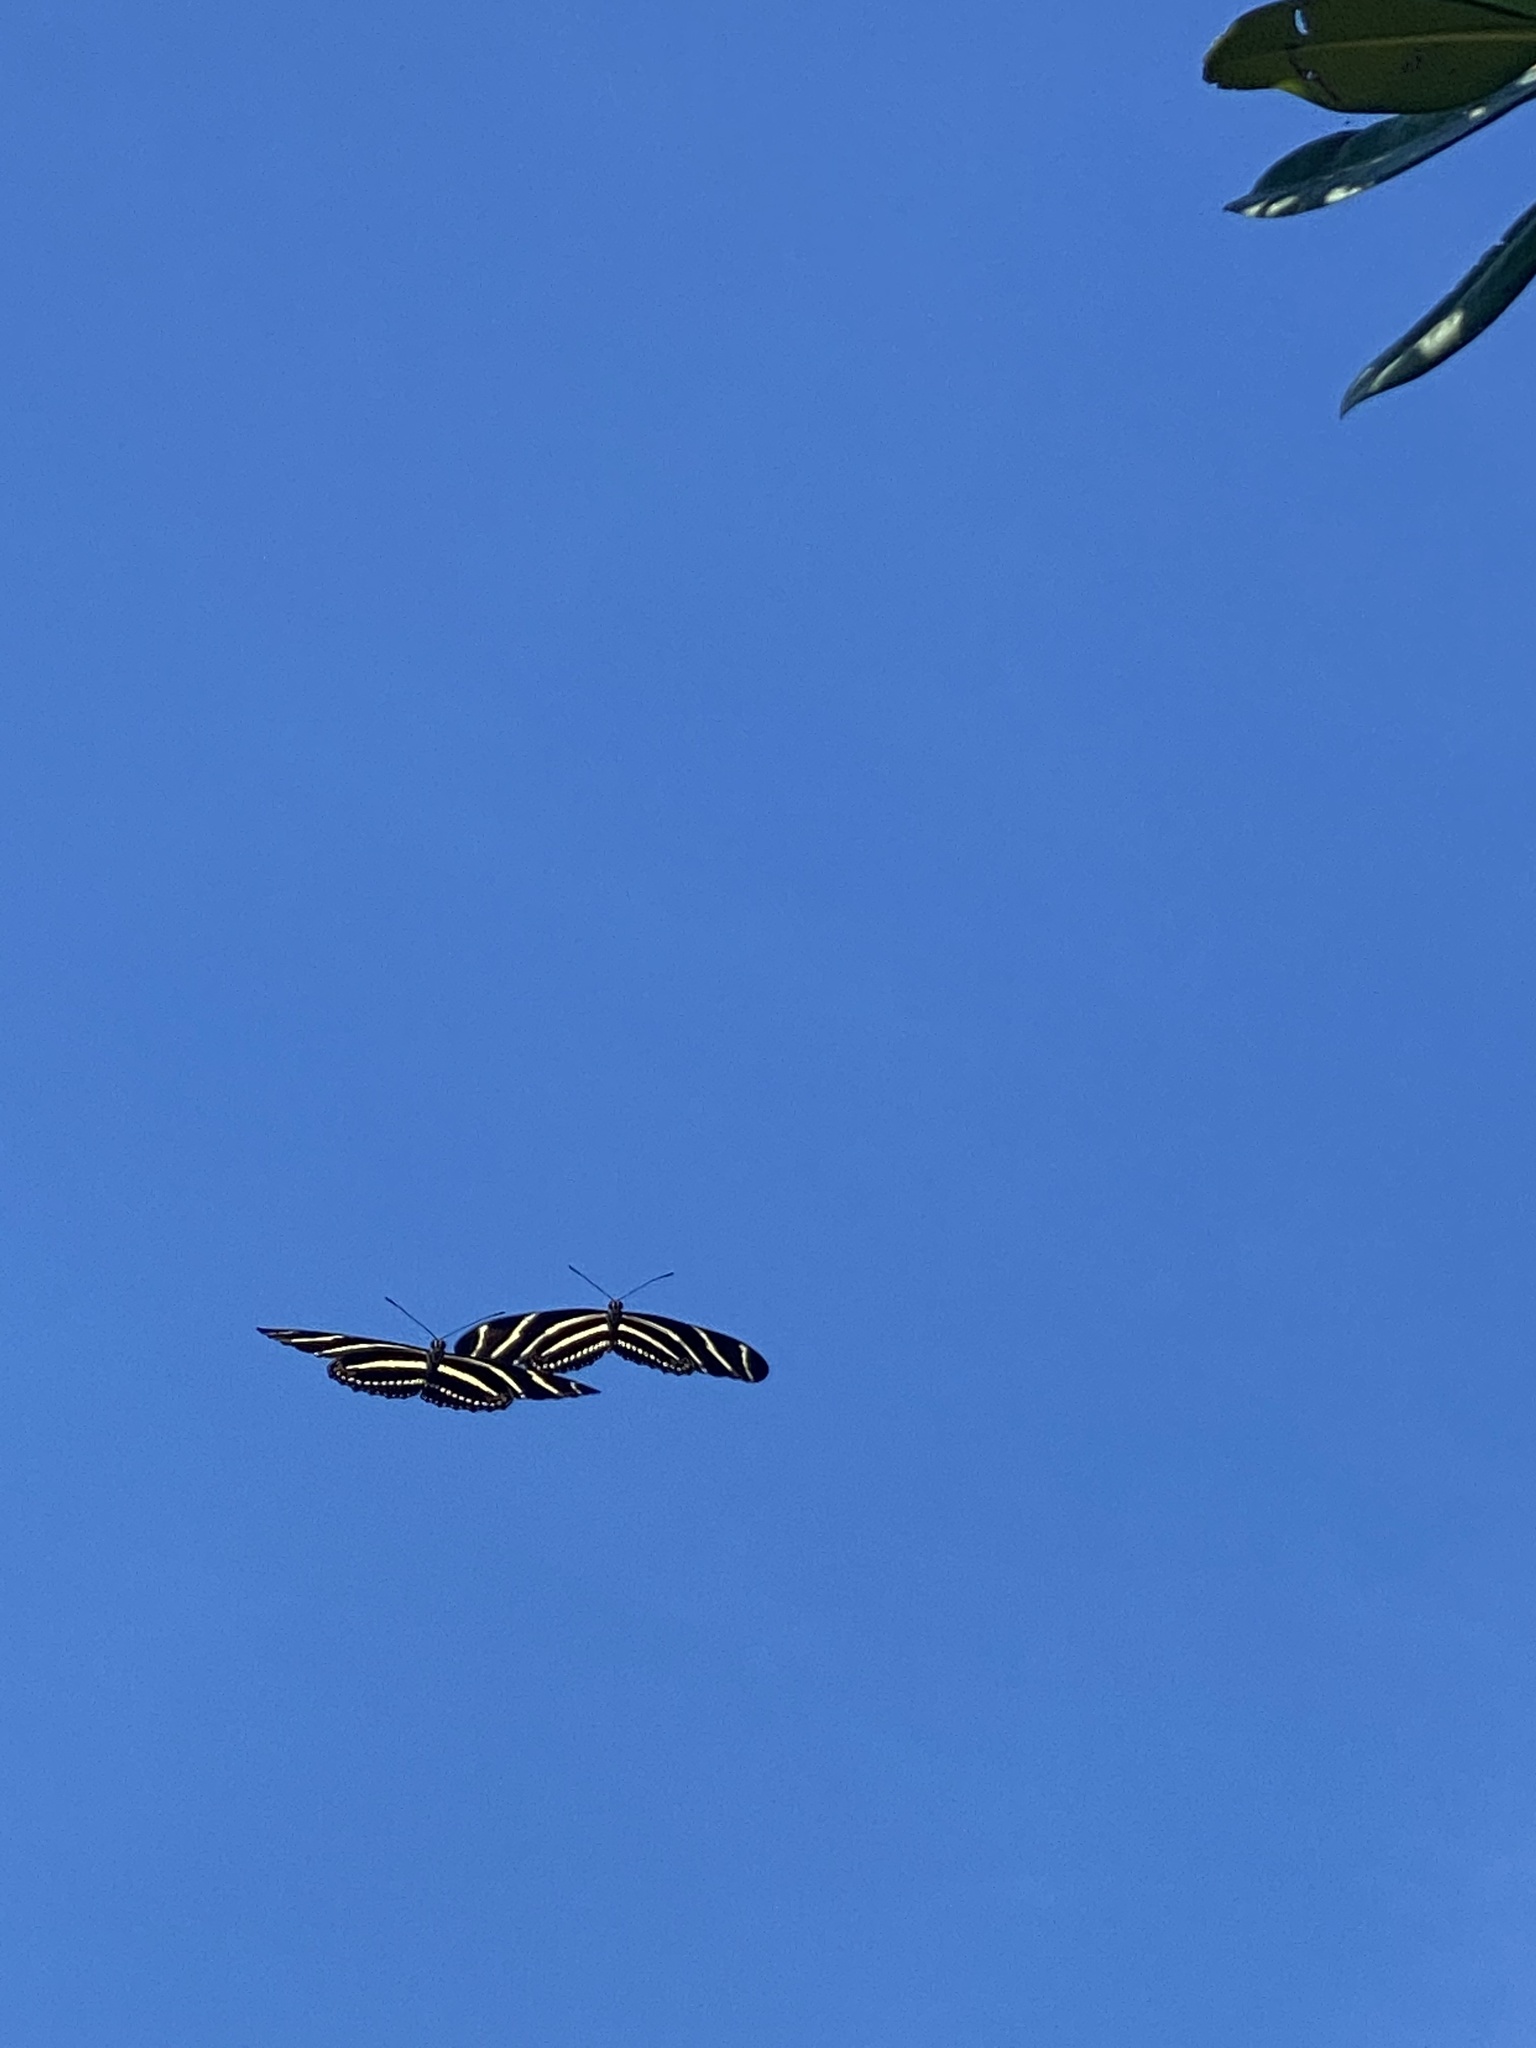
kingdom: Animalia
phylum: Arthropoda
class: Insecta
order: Lepidoptera
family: Nymphalidae
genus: Heliconius
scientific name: Heliconius charithonia
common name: Zebra long wing
